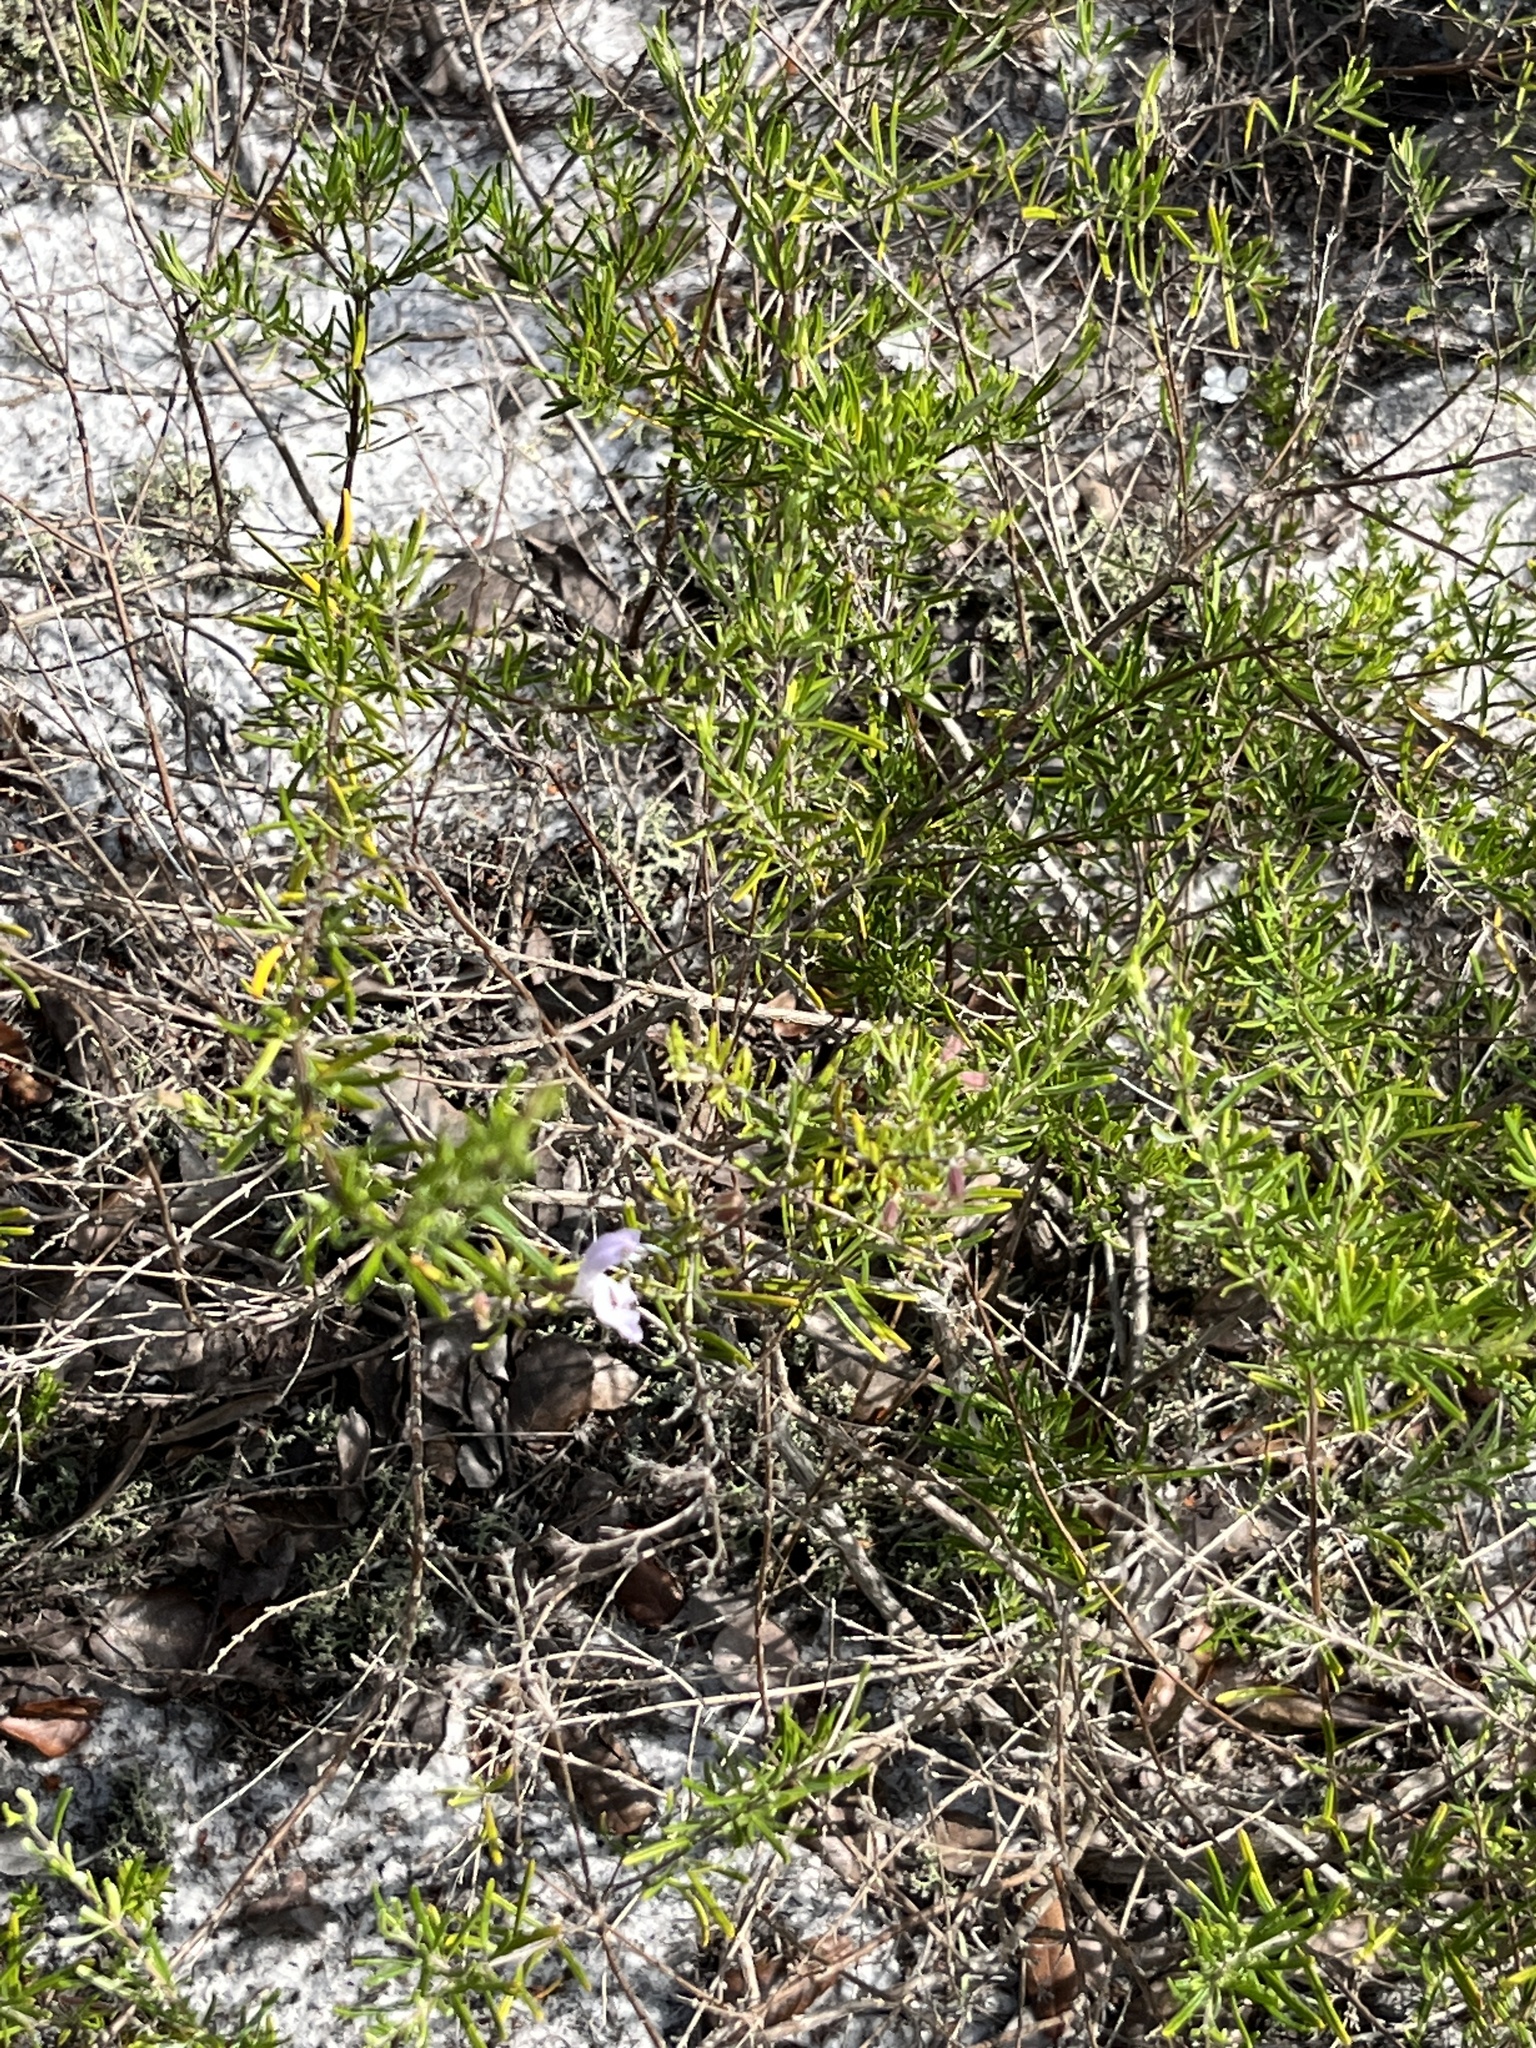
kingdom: Plantae
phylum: Tracheophyta
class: Magnoliopsida
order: Lamiales
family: Lamiaceae
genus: Conradina
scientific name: Conradina grandiflora
